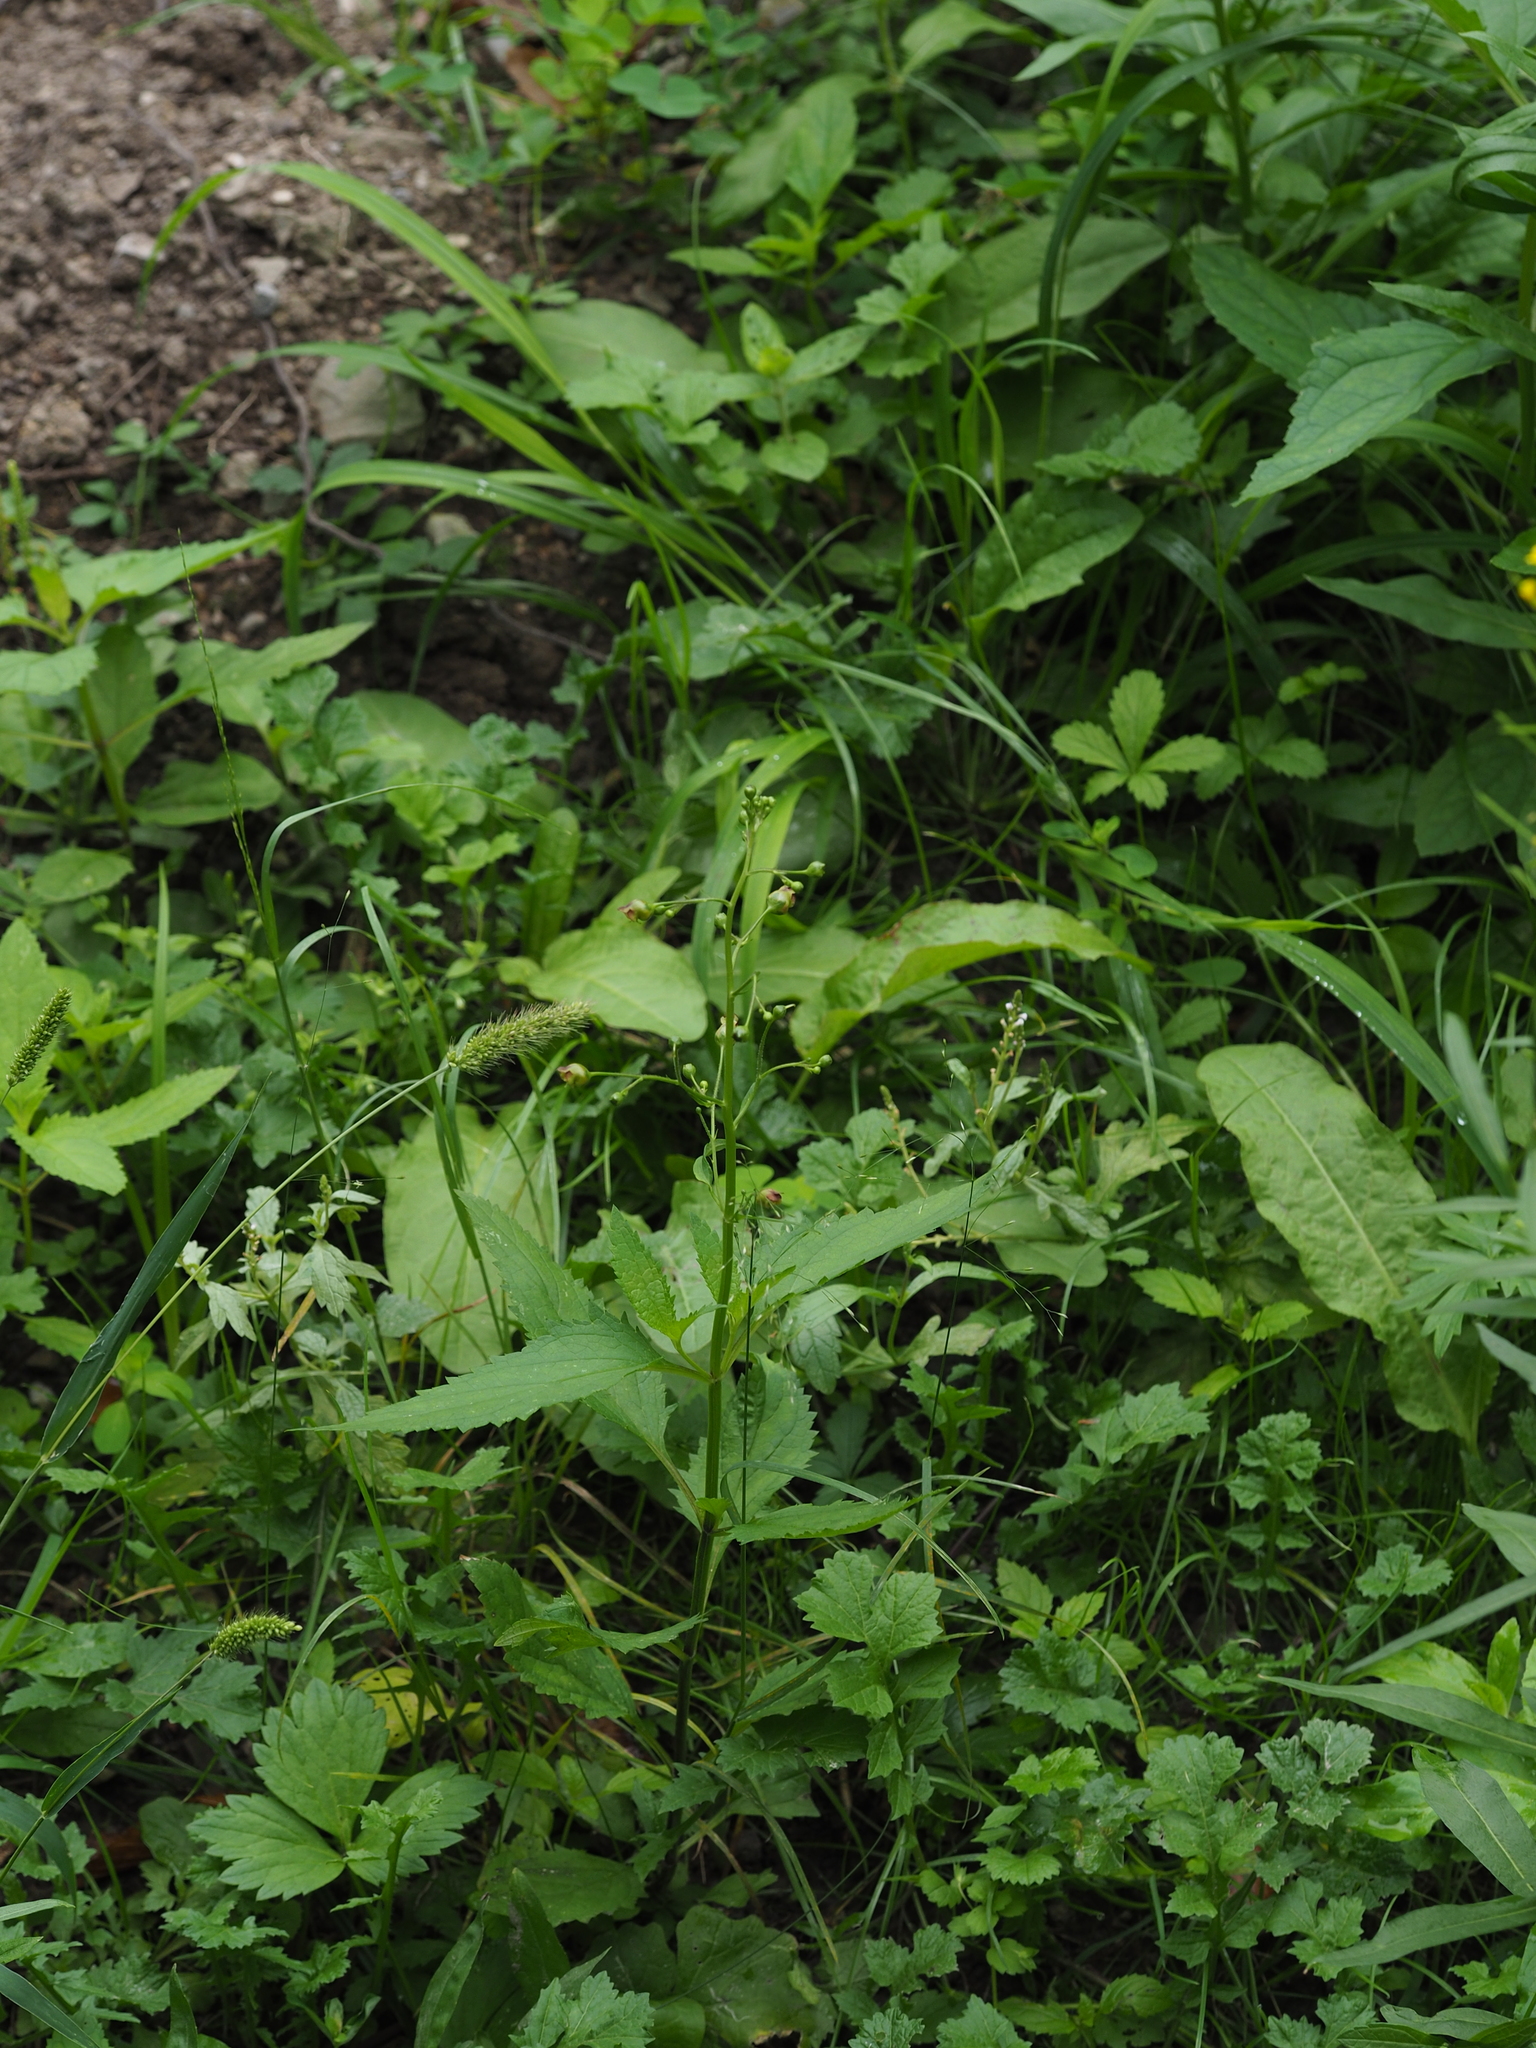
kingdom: Plantae
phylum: Tracheophyta
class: Magnoliopsida
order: Lamiales
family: Scrophulariaceae
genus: Scrophularia
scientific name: Scrophularia nodosa
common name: Common figwort
